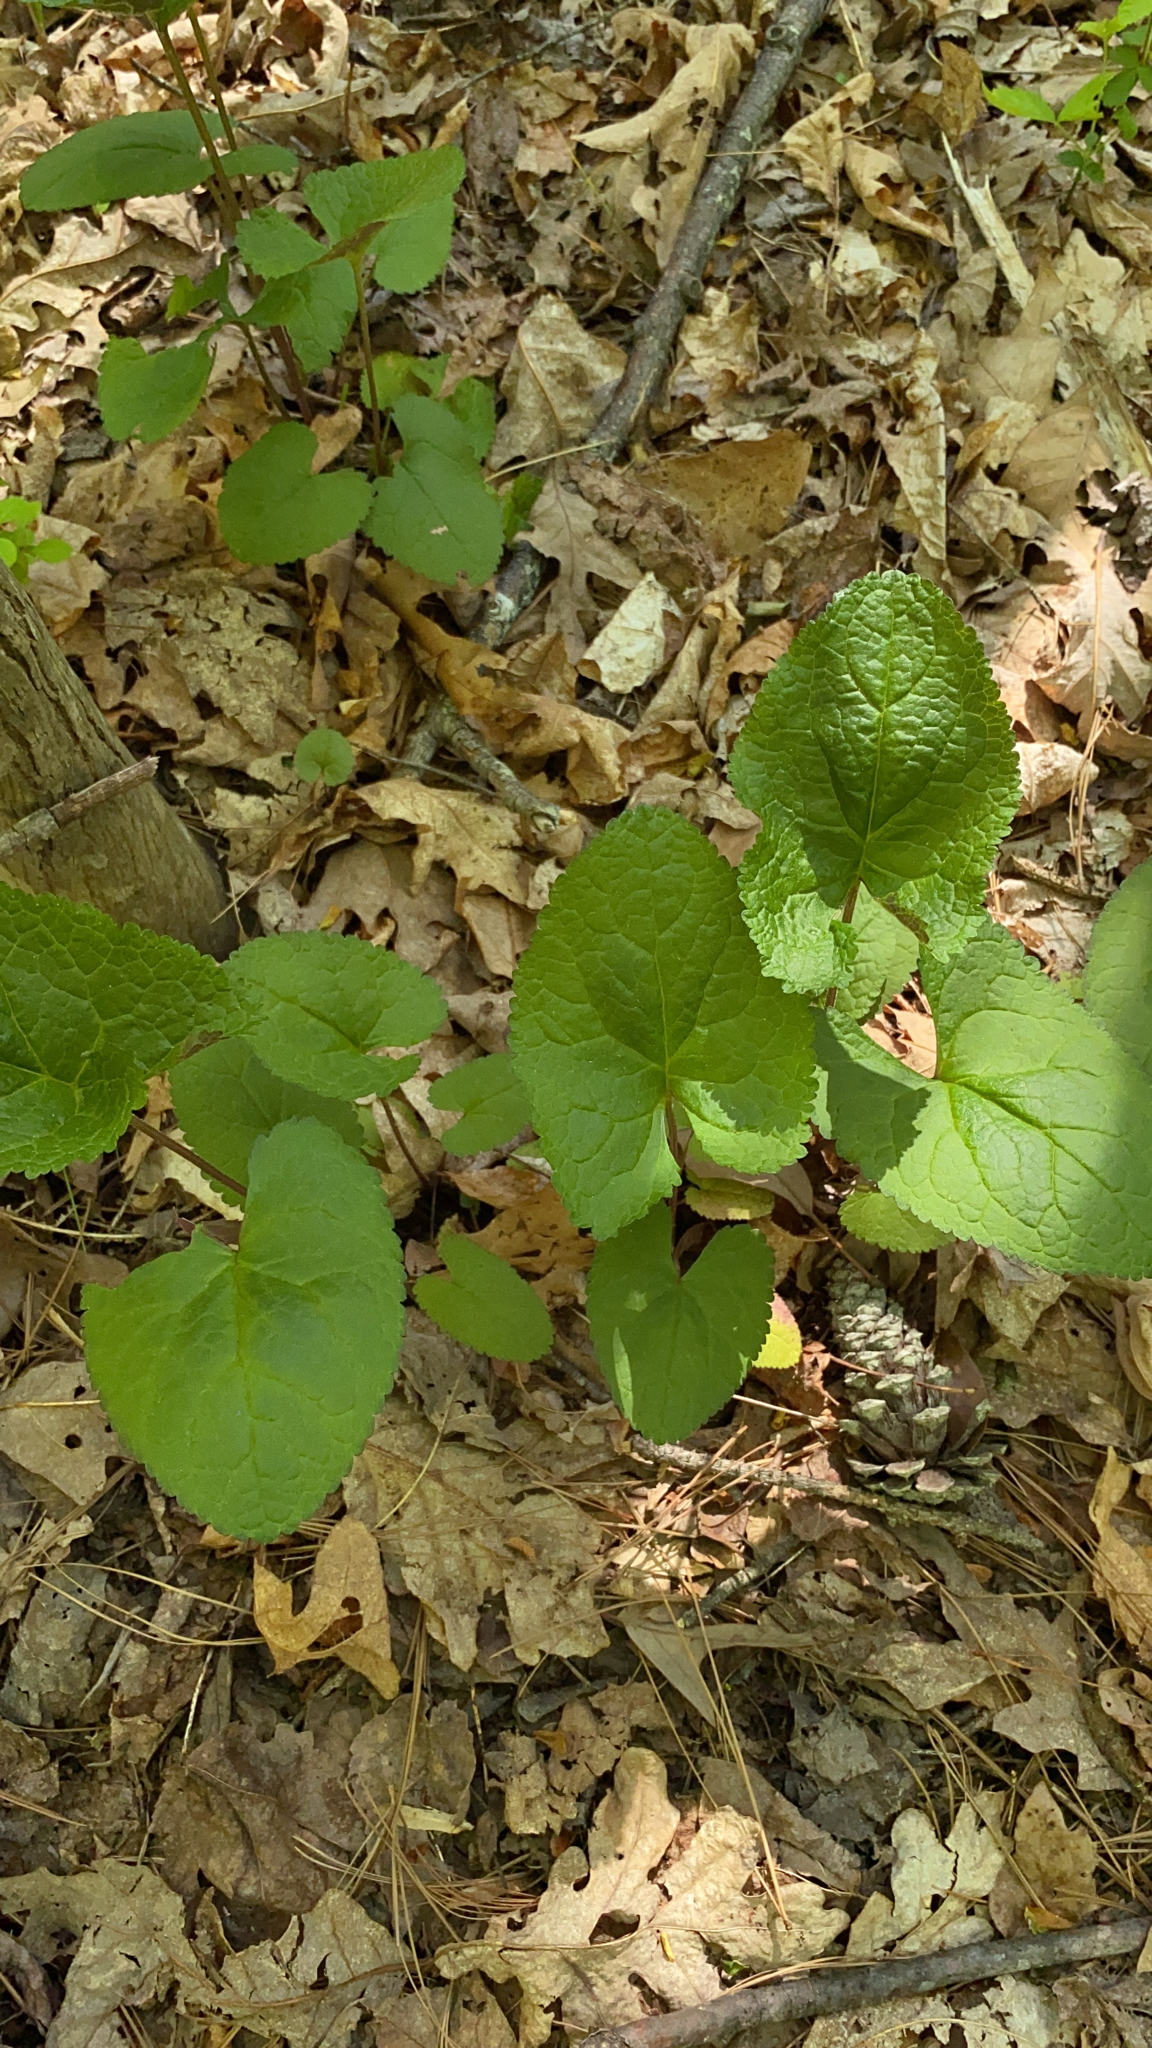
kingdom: Plantae
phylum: Tracheophyta
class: Magnoliopsida
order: Asterales
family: Asteraceae
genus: Packera
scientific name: Packera aurea
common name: Golden groundsel
